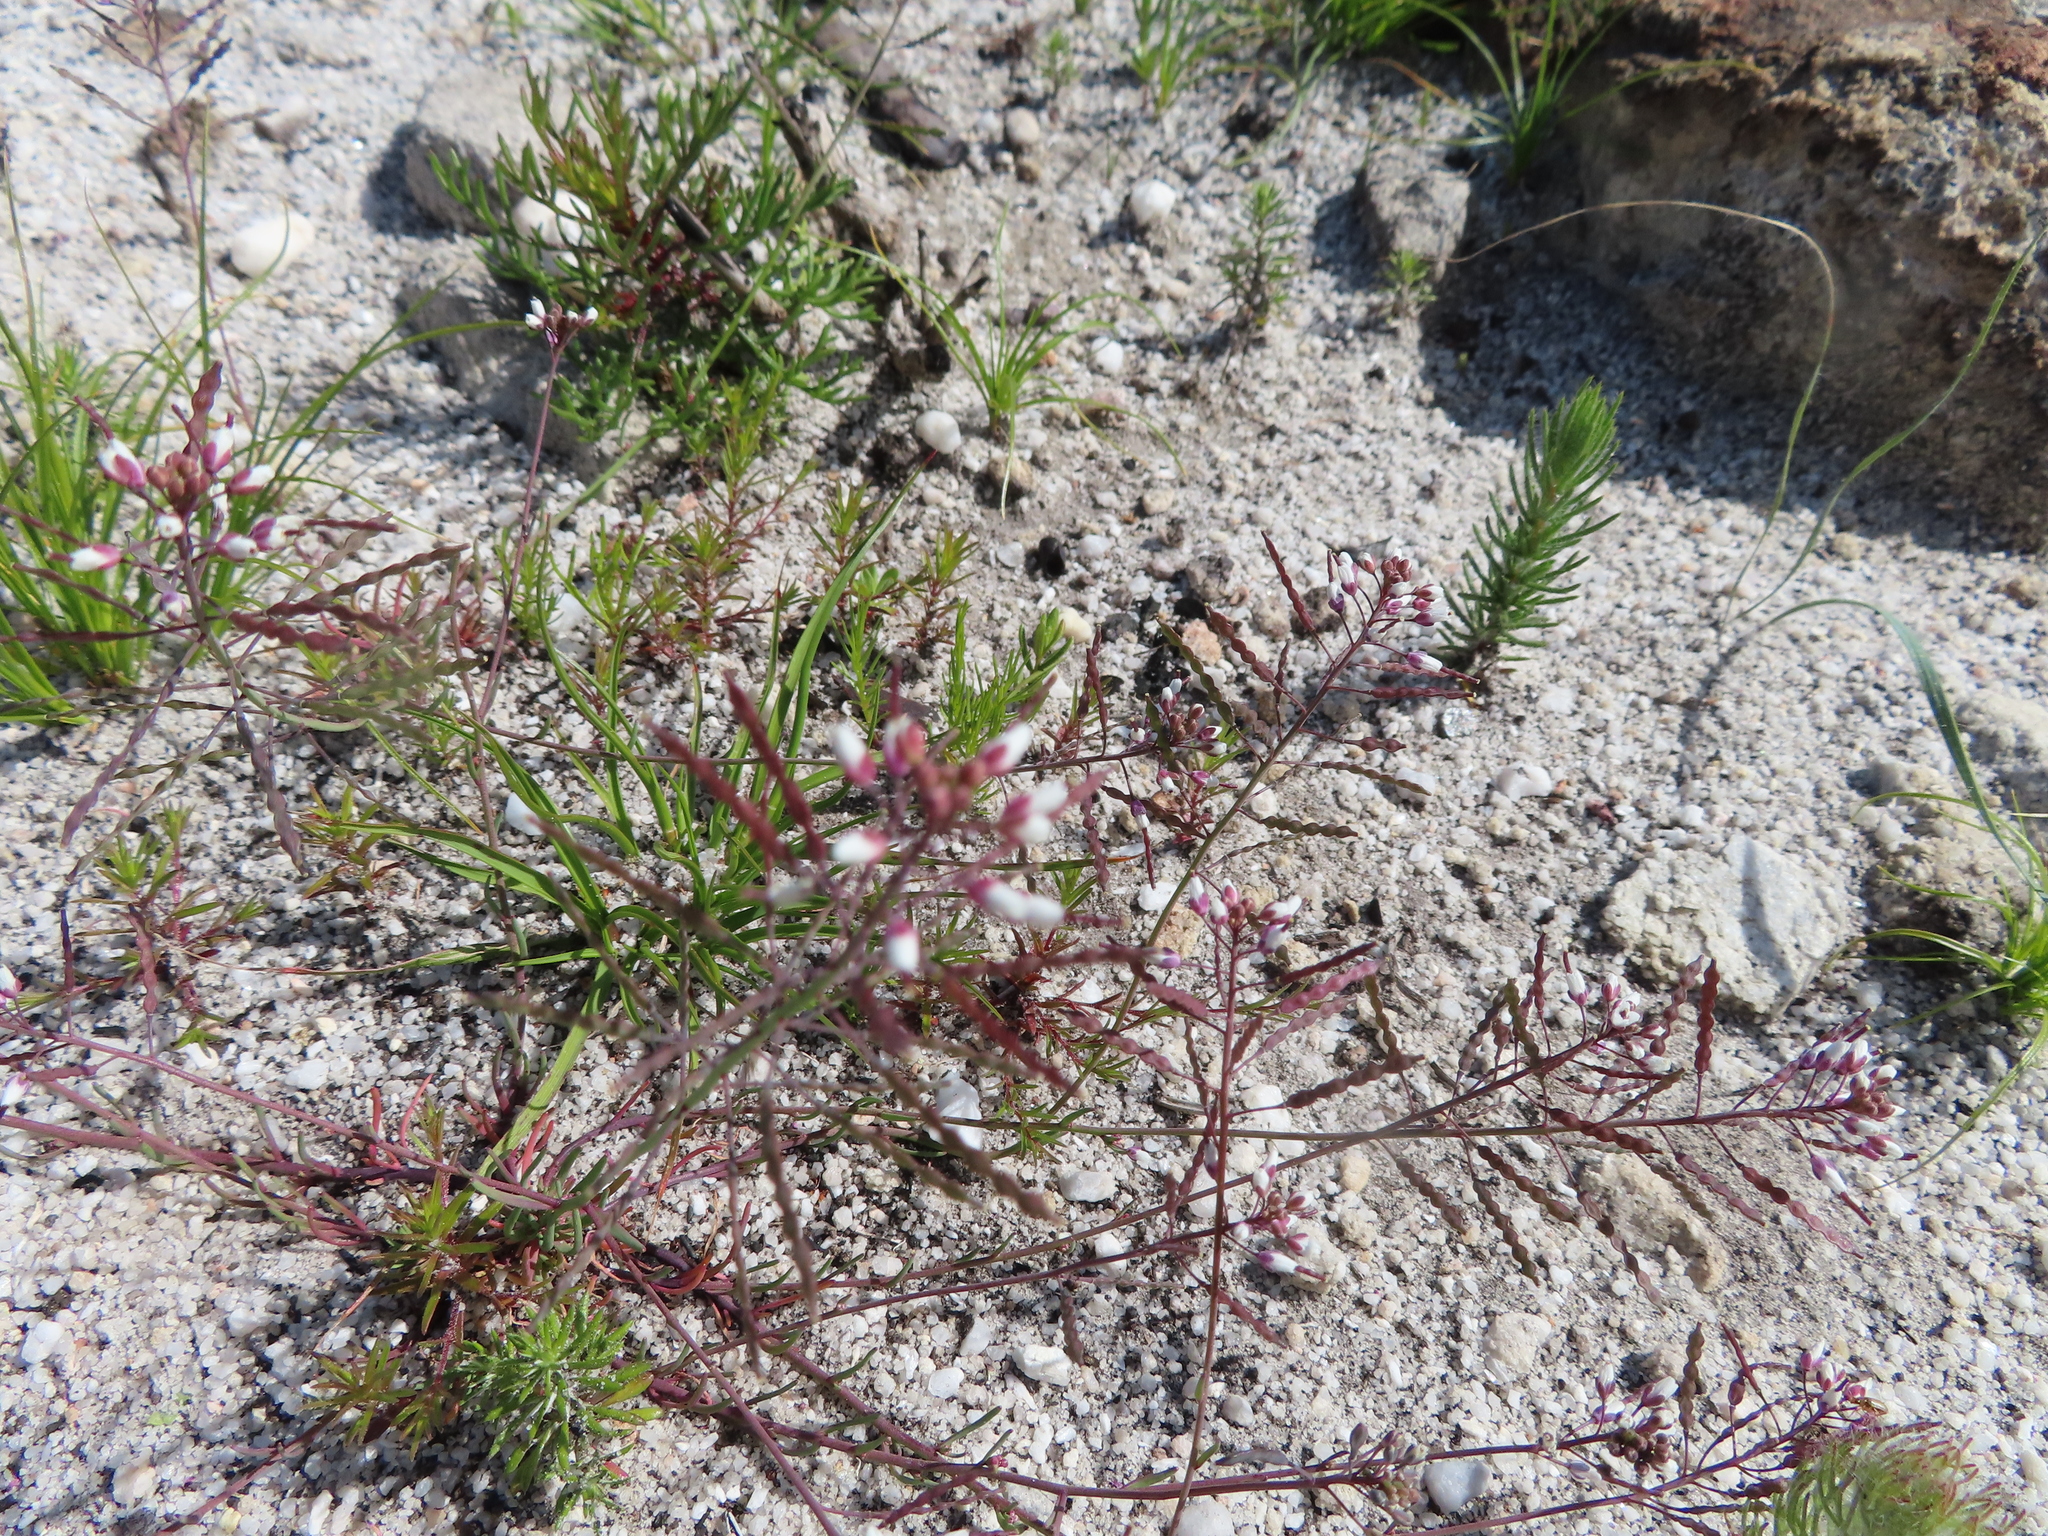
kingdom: Plantae
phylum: Tracheophyta
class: Magnoliopsida
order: Brassicales
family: Brassicaceae
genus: Heliophila
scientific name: Heliophila pusilla
